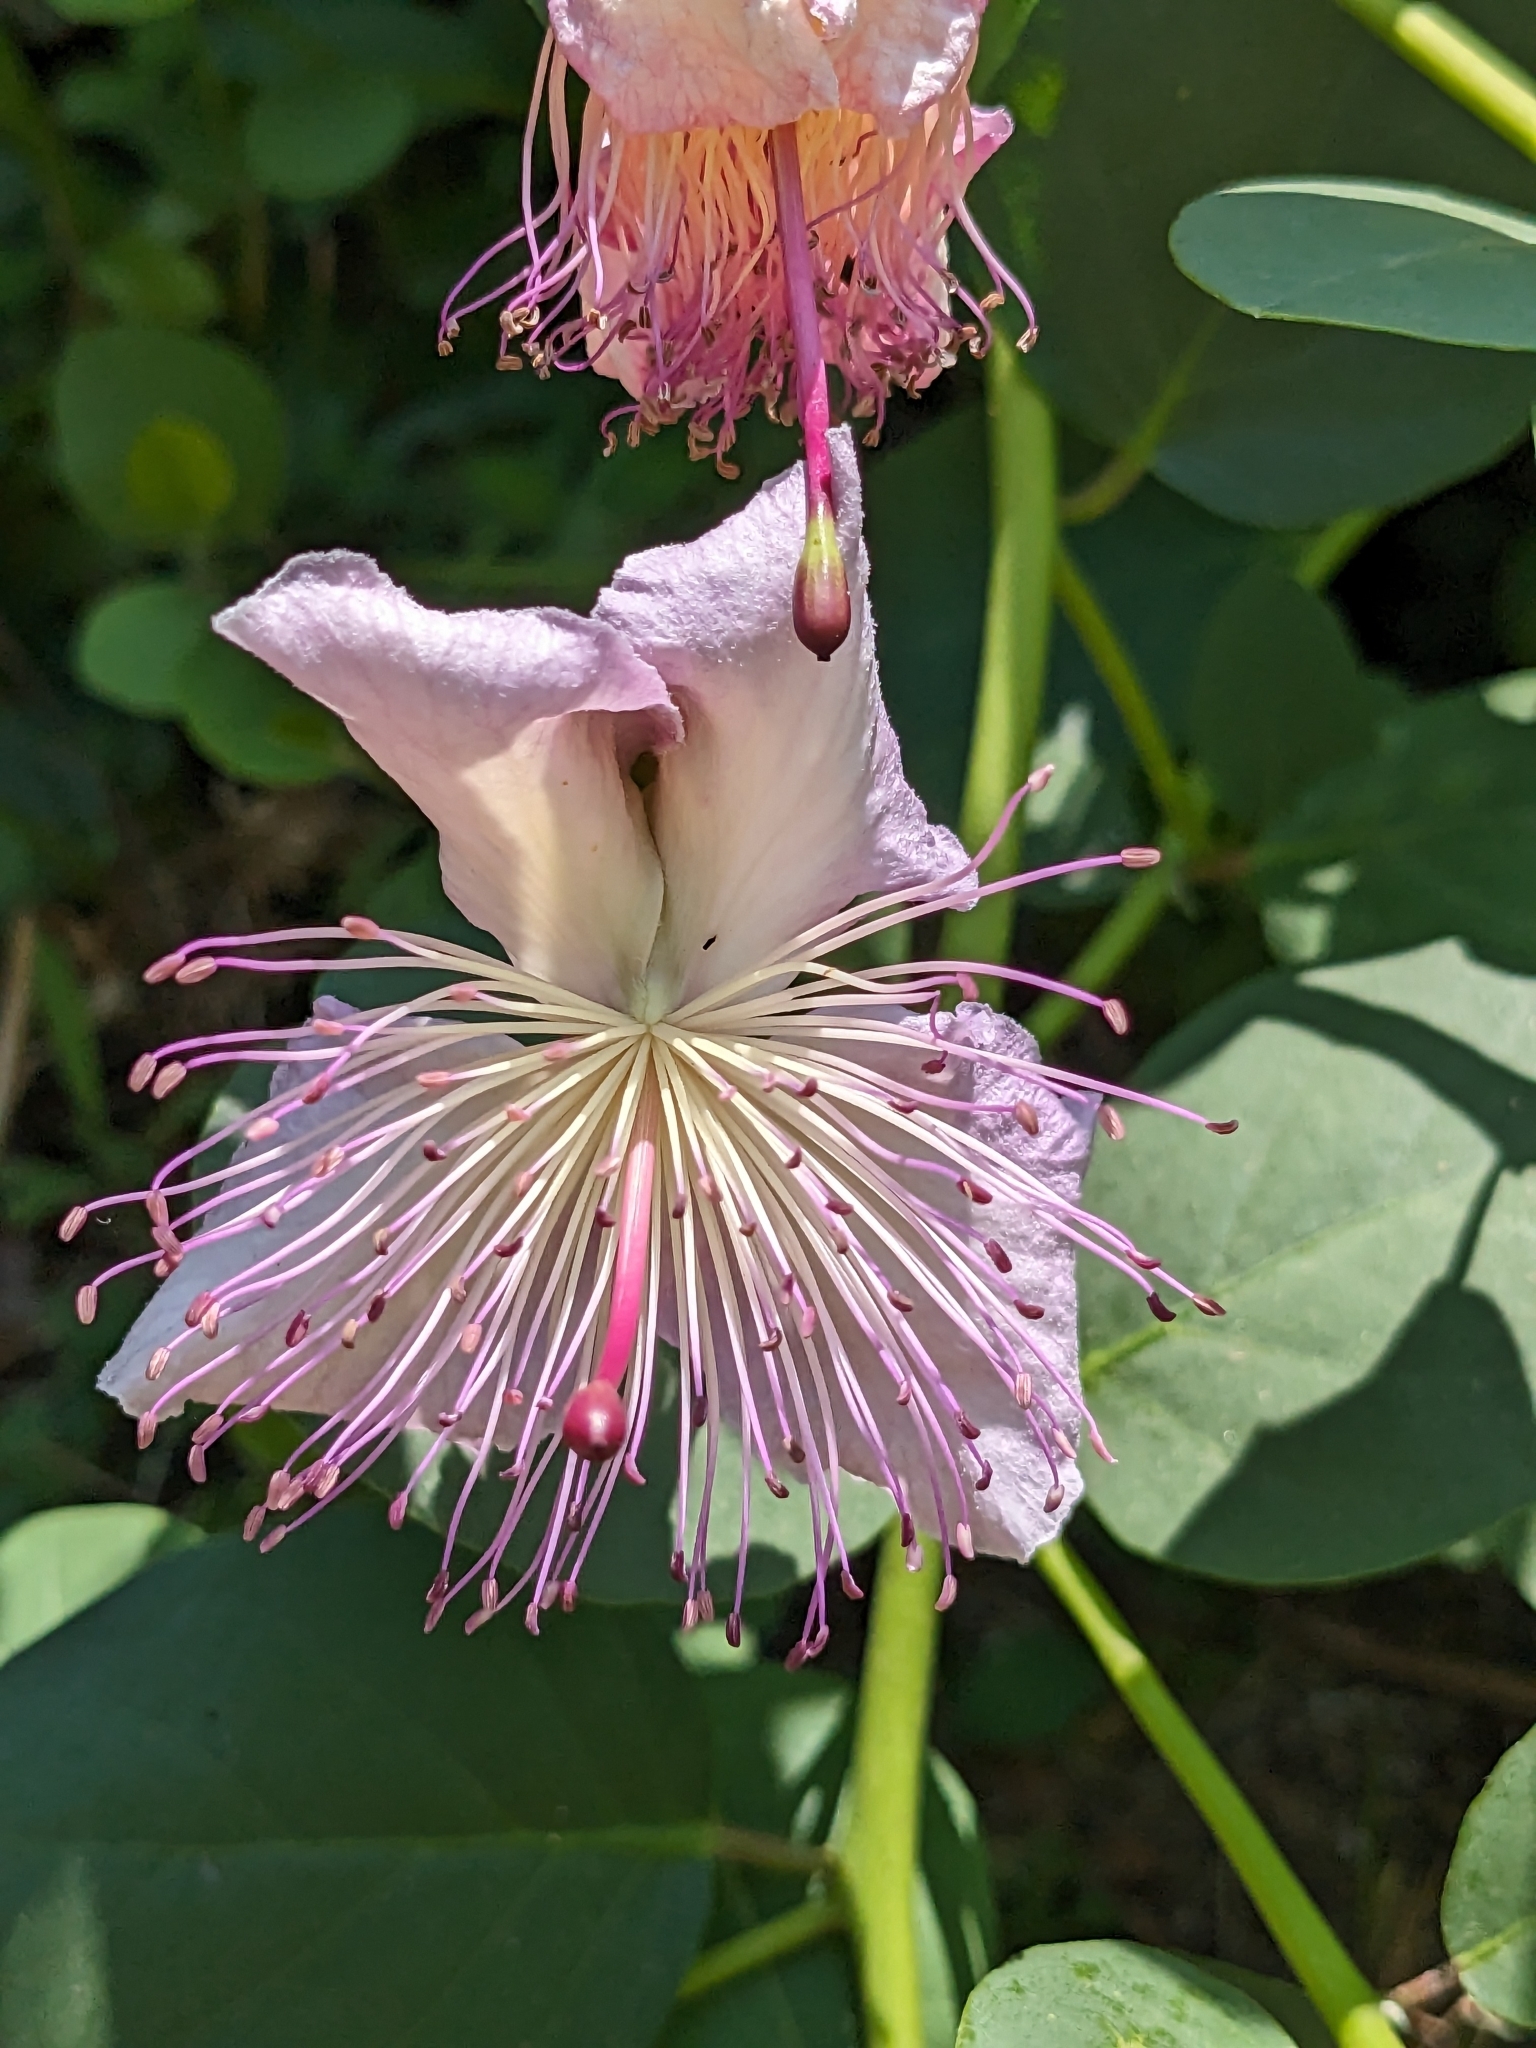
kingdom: Plantae
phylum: Tracheophyta
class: Magnoliopsida
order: Brassicales
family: Capparaceae
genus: Capparis
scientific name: Capparis orientalis
